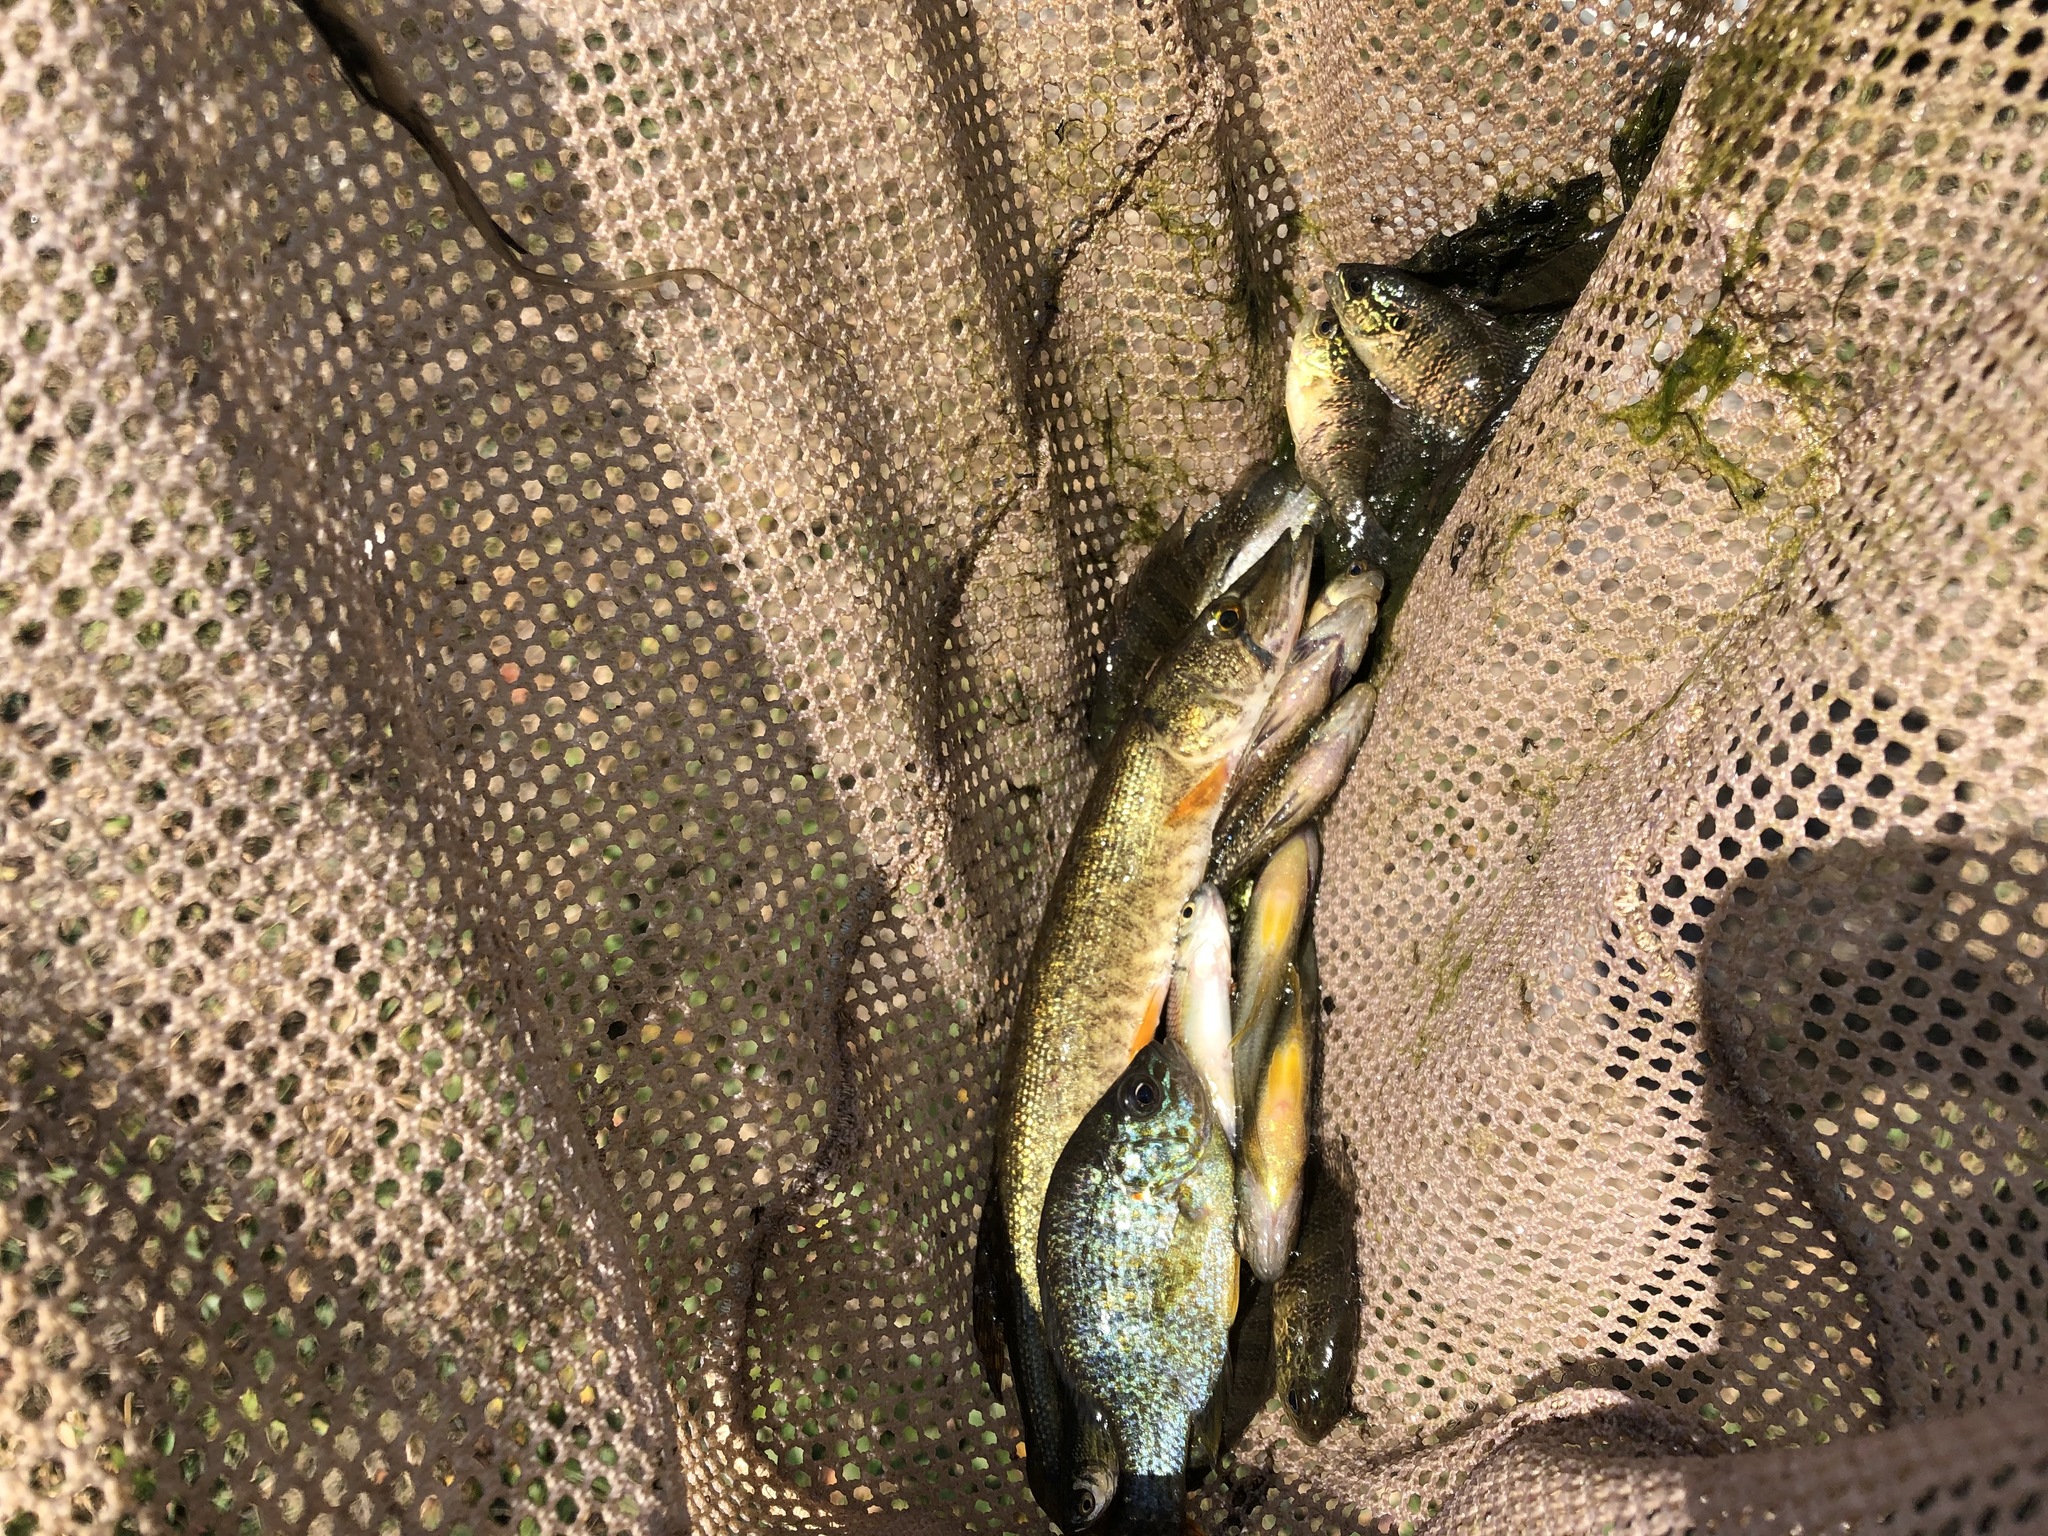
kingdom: Animalia
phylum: Chordata
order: Esociformes
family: Esocidae
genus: Esox
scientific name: Esox americanus
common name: Redfin pickerel
